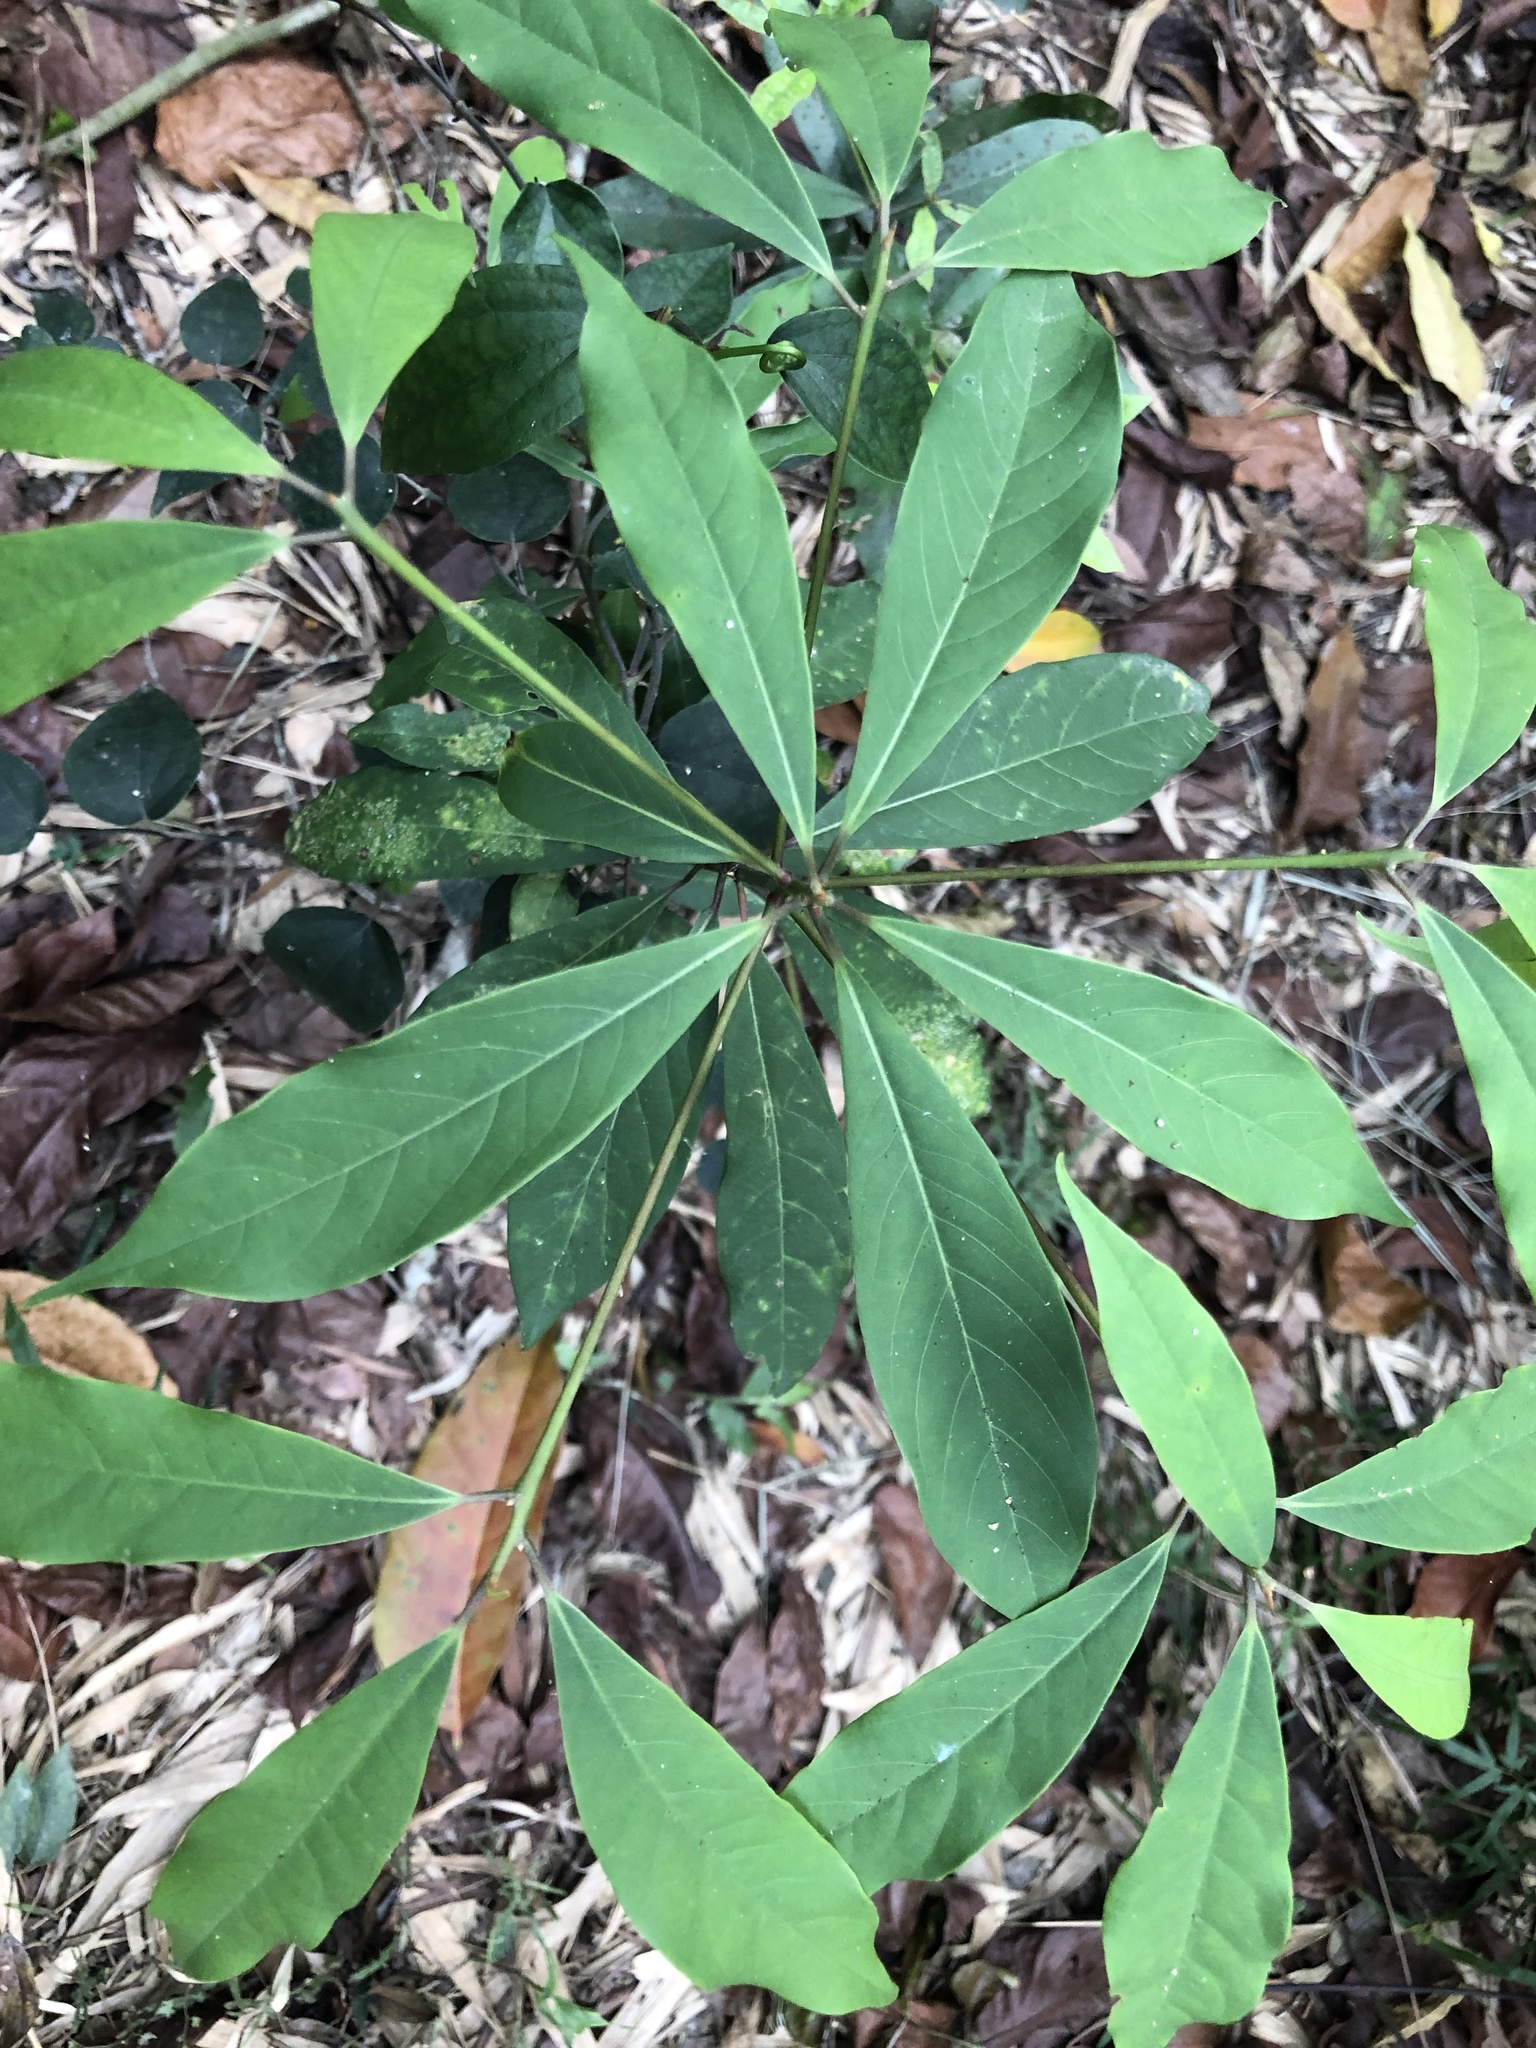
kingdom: Plantae
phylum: Tracheophyta
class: Magnoliopsida
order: Laurales
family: Lauraceae
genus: Machilus
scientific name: Machilus zuihoensis
